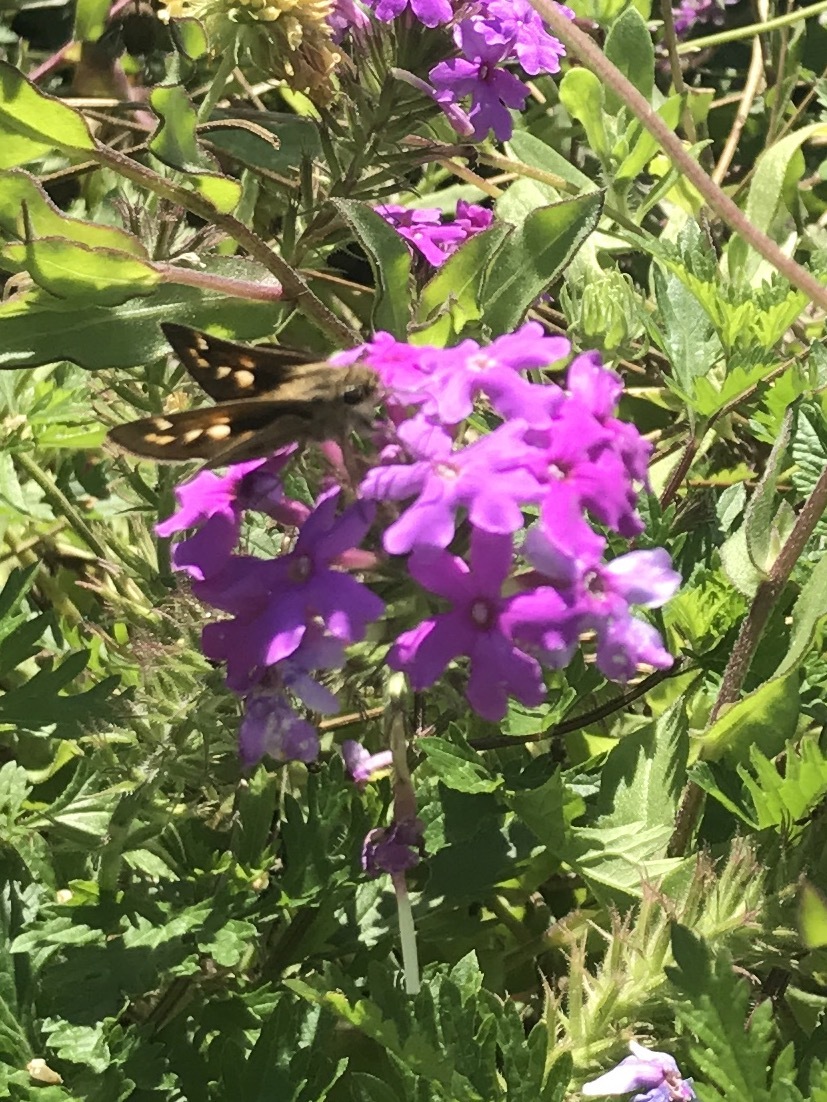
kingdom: Animalia
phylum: Arthropoda
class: Insecta
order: Lepidoptera
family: Hesperiidae
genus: Atalopedes
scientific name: Atalopedes
